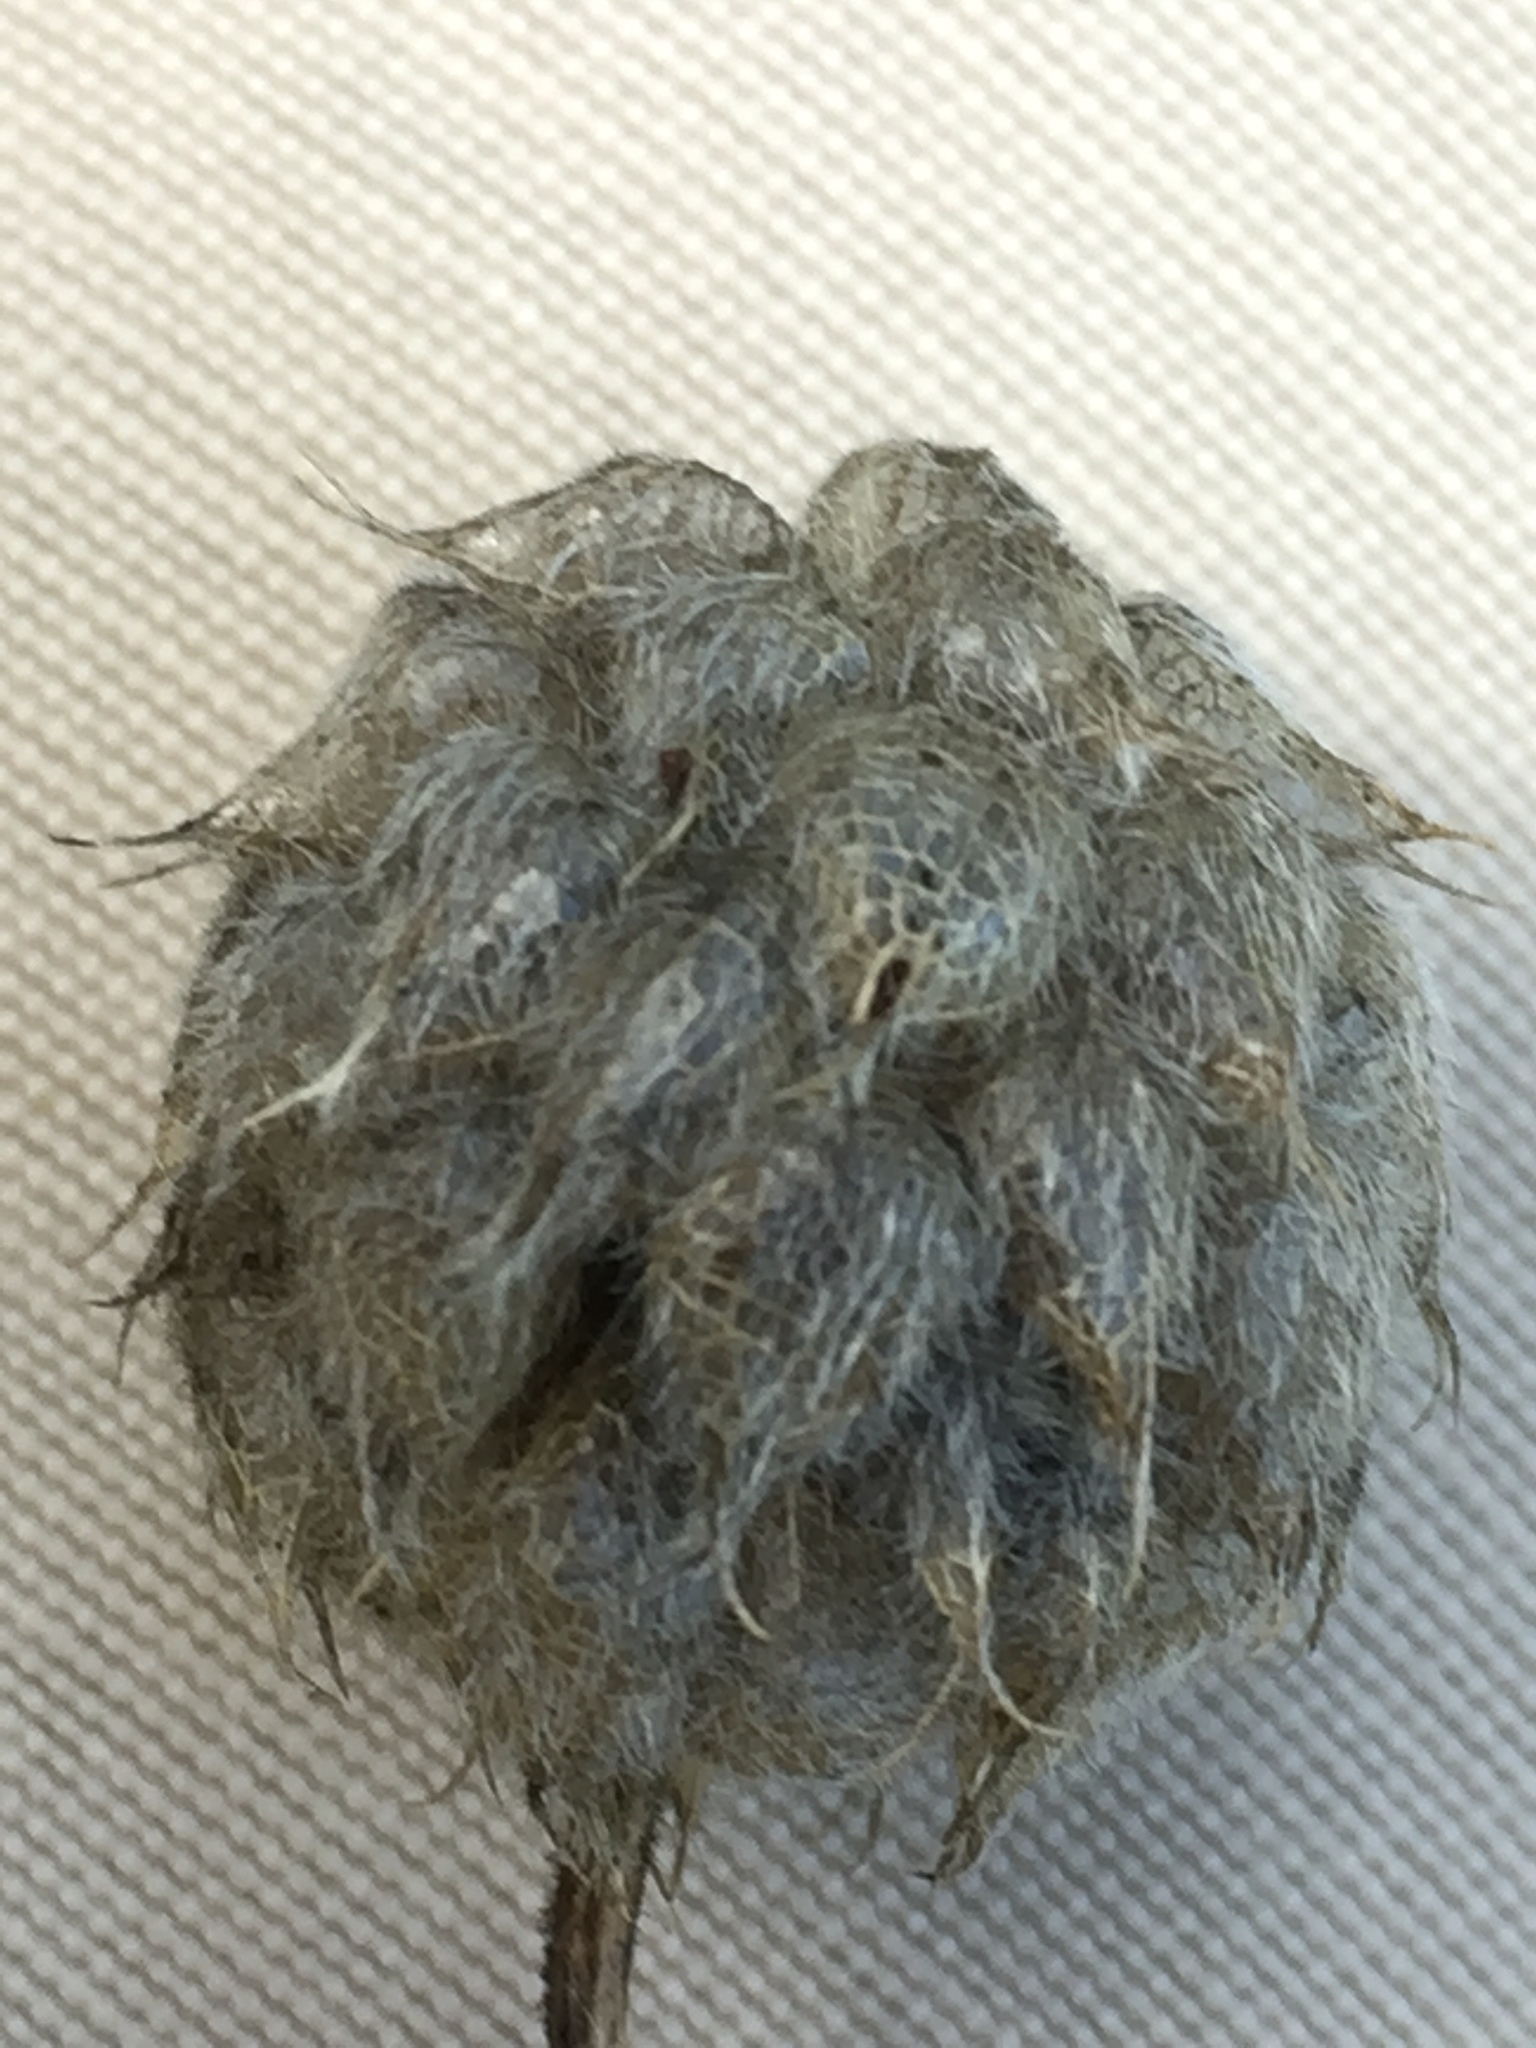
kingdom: Plantae
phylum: Tracheophyta
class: Magnoliopsida
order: Fabales
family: Fabaceae
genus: Trifolium
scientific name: Trifolium fragiferum
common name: Strawberry clover
